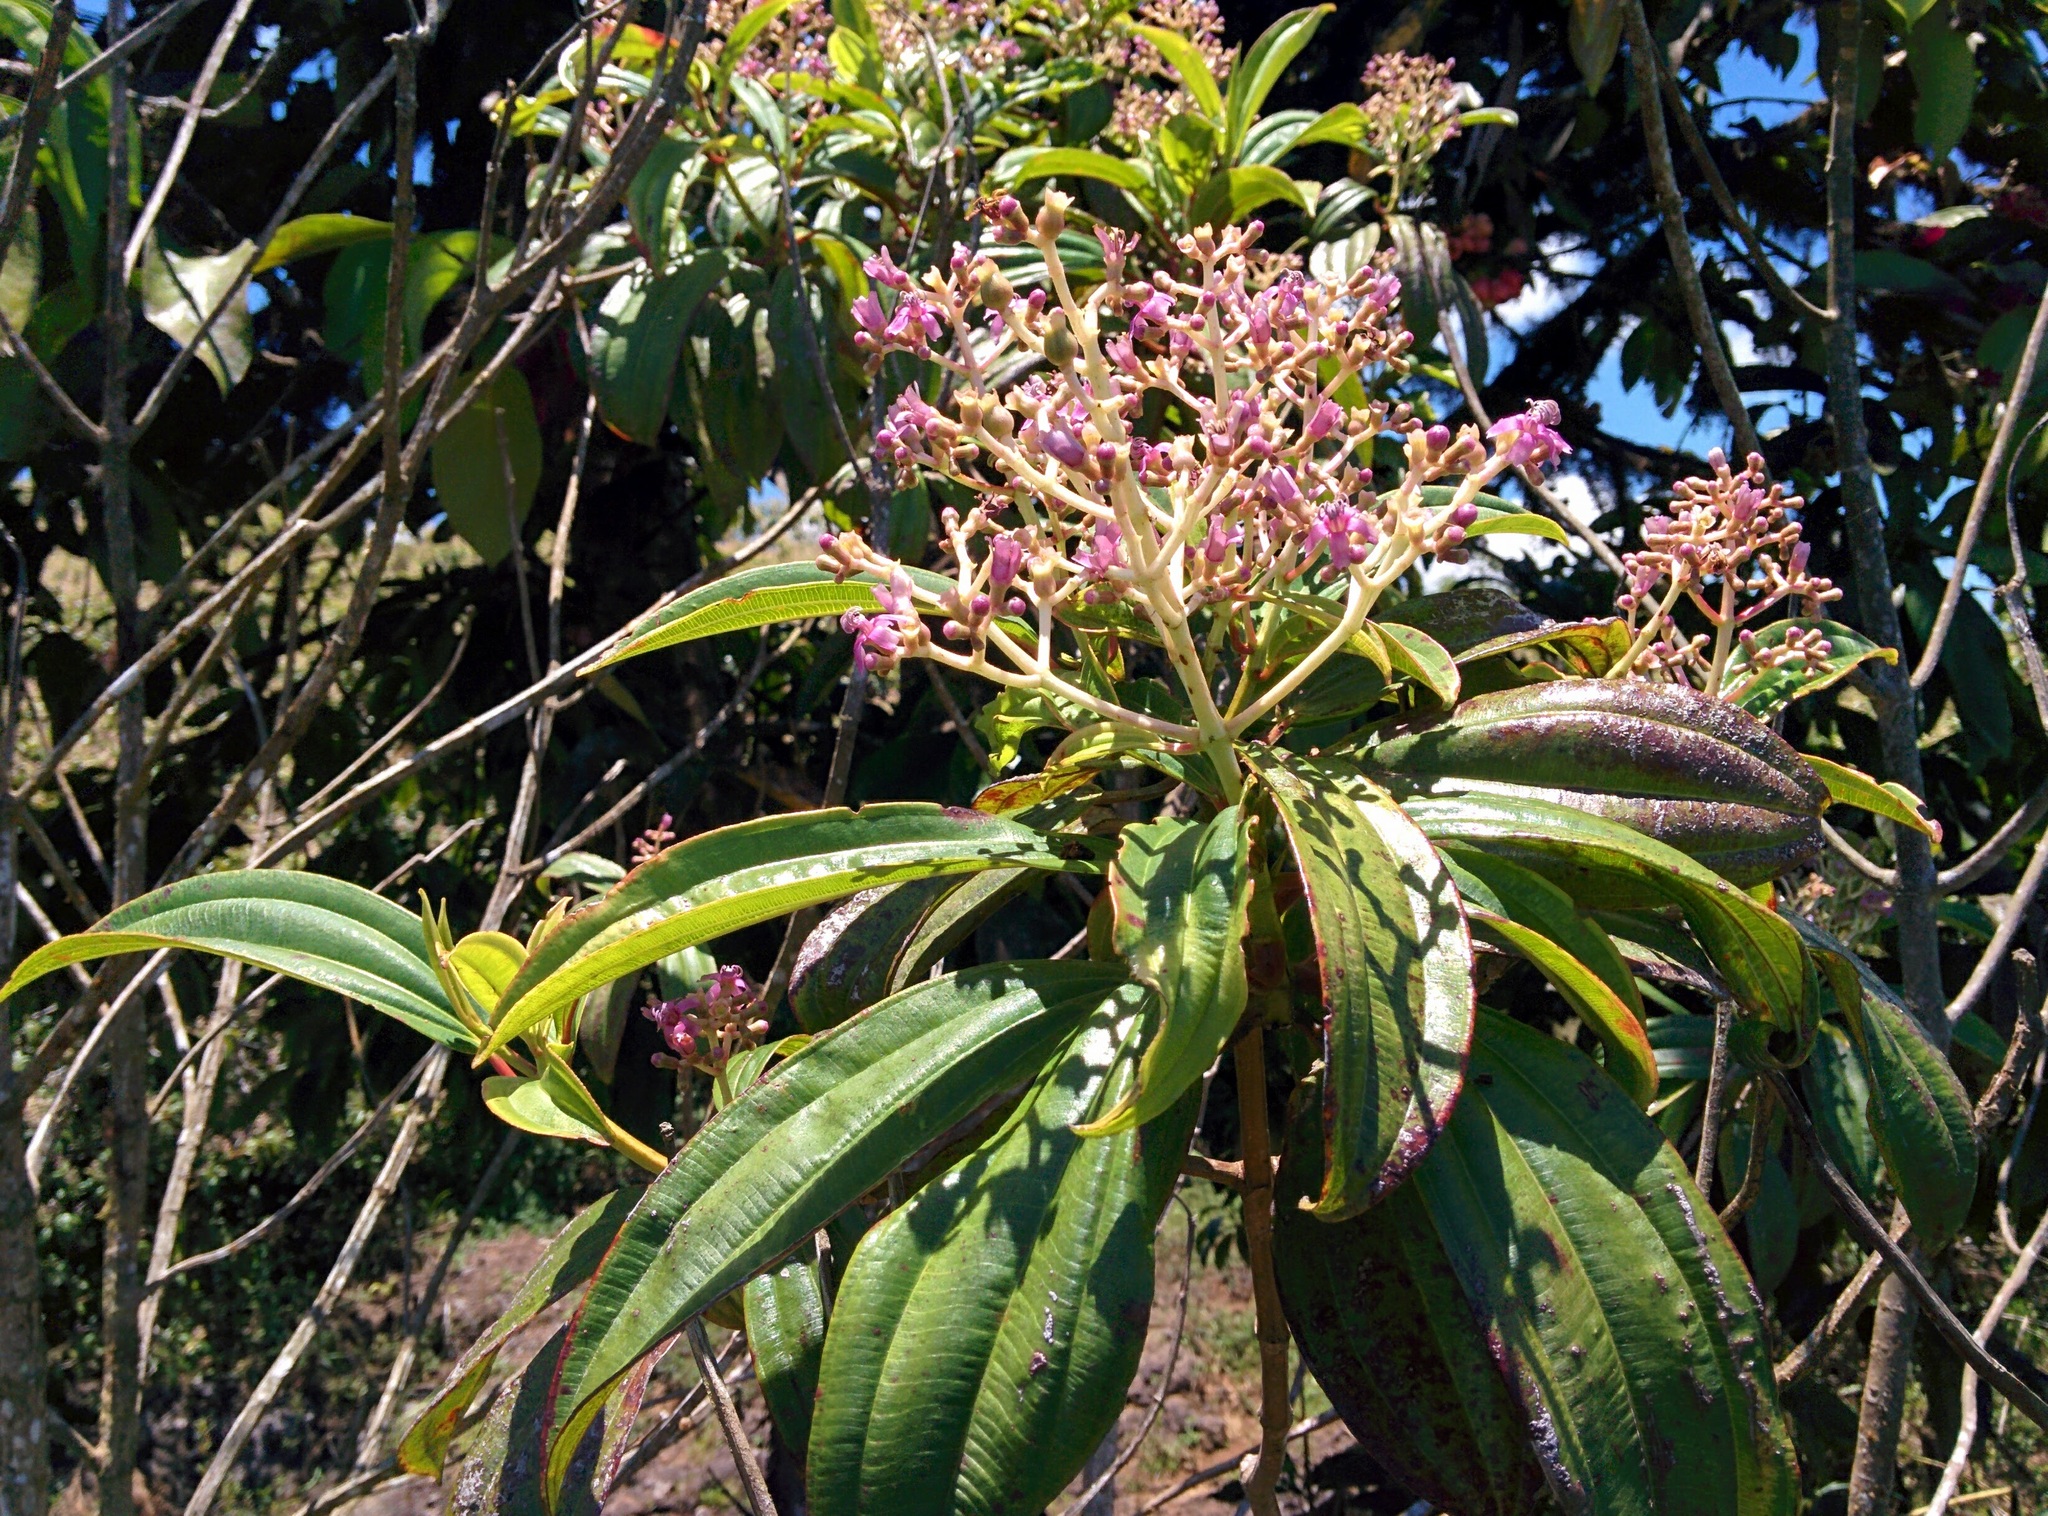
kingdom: Plantae
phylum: Tracheophyta
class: Magnoliopsida
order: Myrtales
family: Melastomataceae
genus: Miconia
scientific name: Miconia robinsoniana
